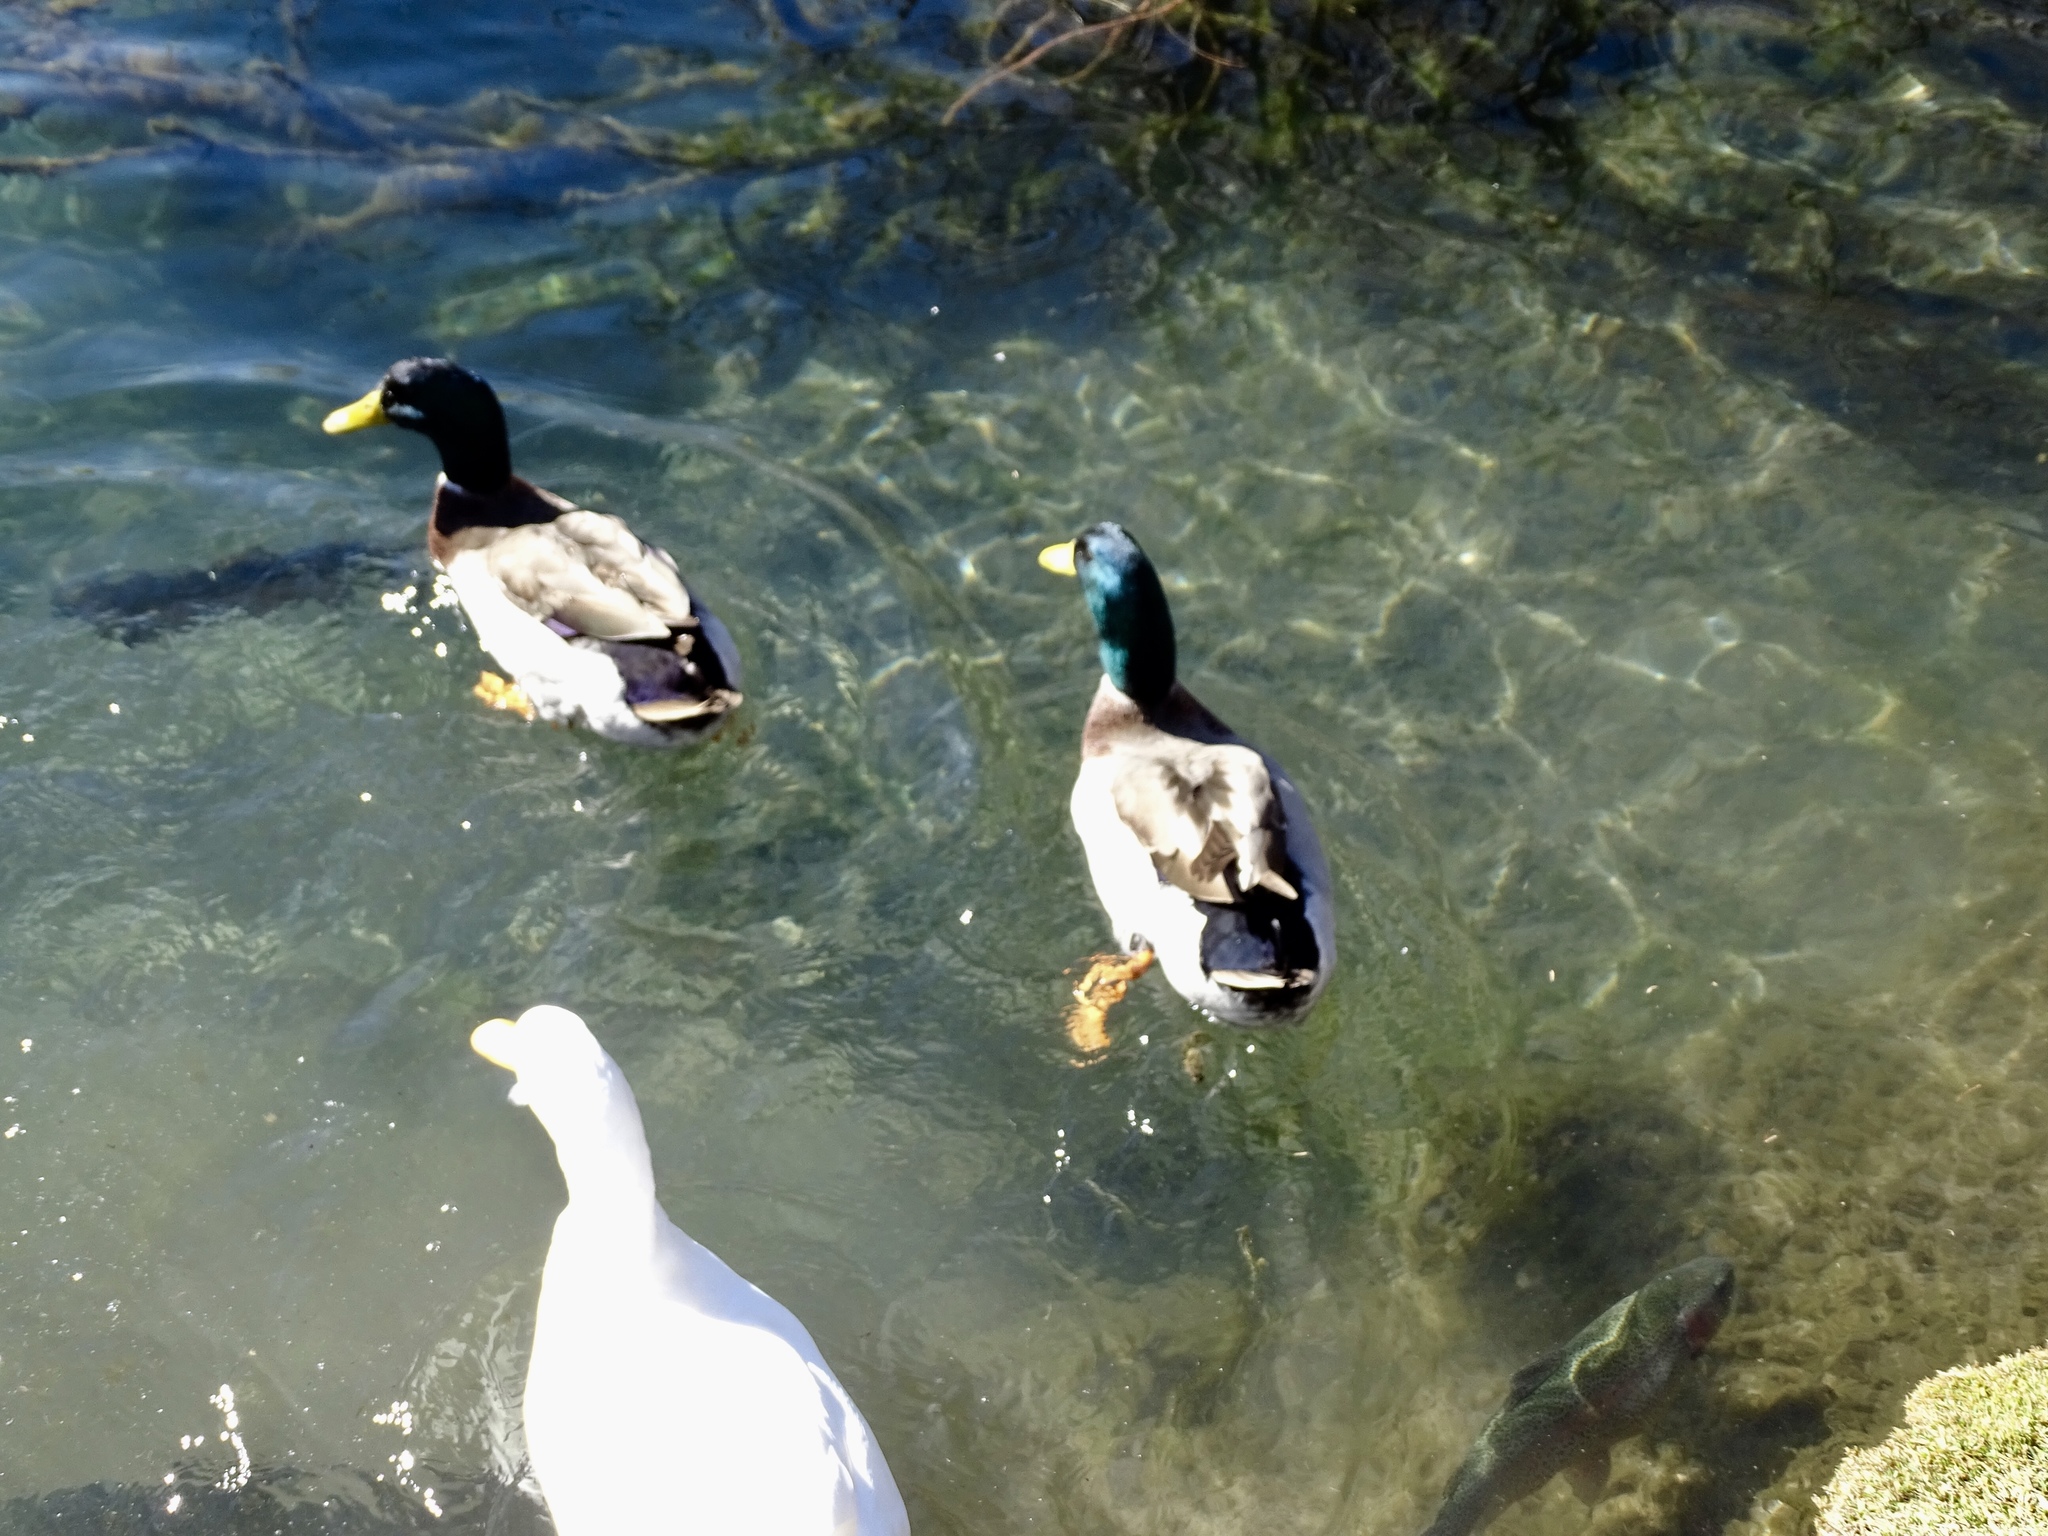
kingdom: Animalia
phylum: Chordata
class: Aves
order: Anseriformes
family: Anatidae
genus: Anas
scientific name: Anas platyrhynchos
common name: Mallard
